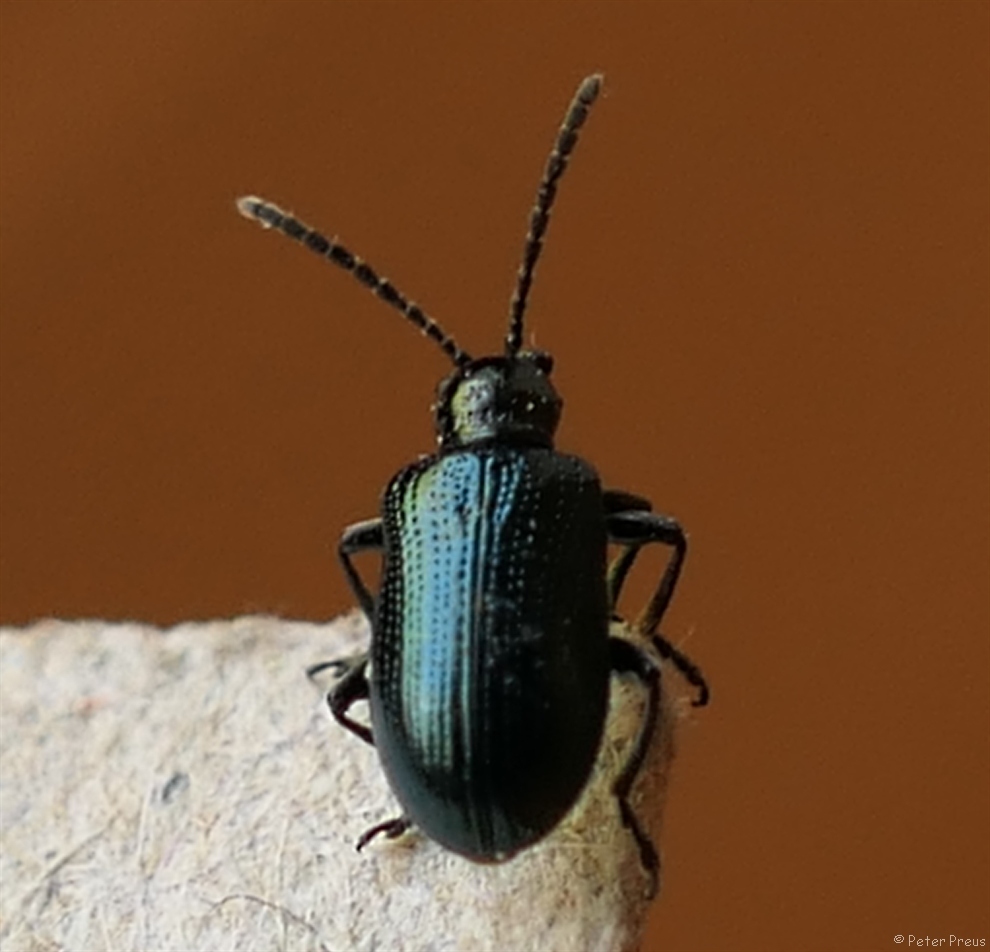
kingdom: Animalia
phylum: Arthropoda
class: Insecta
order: Coleoptera
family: Chrysomelidae
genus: Oulema
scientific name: Oulema gallaeciana
